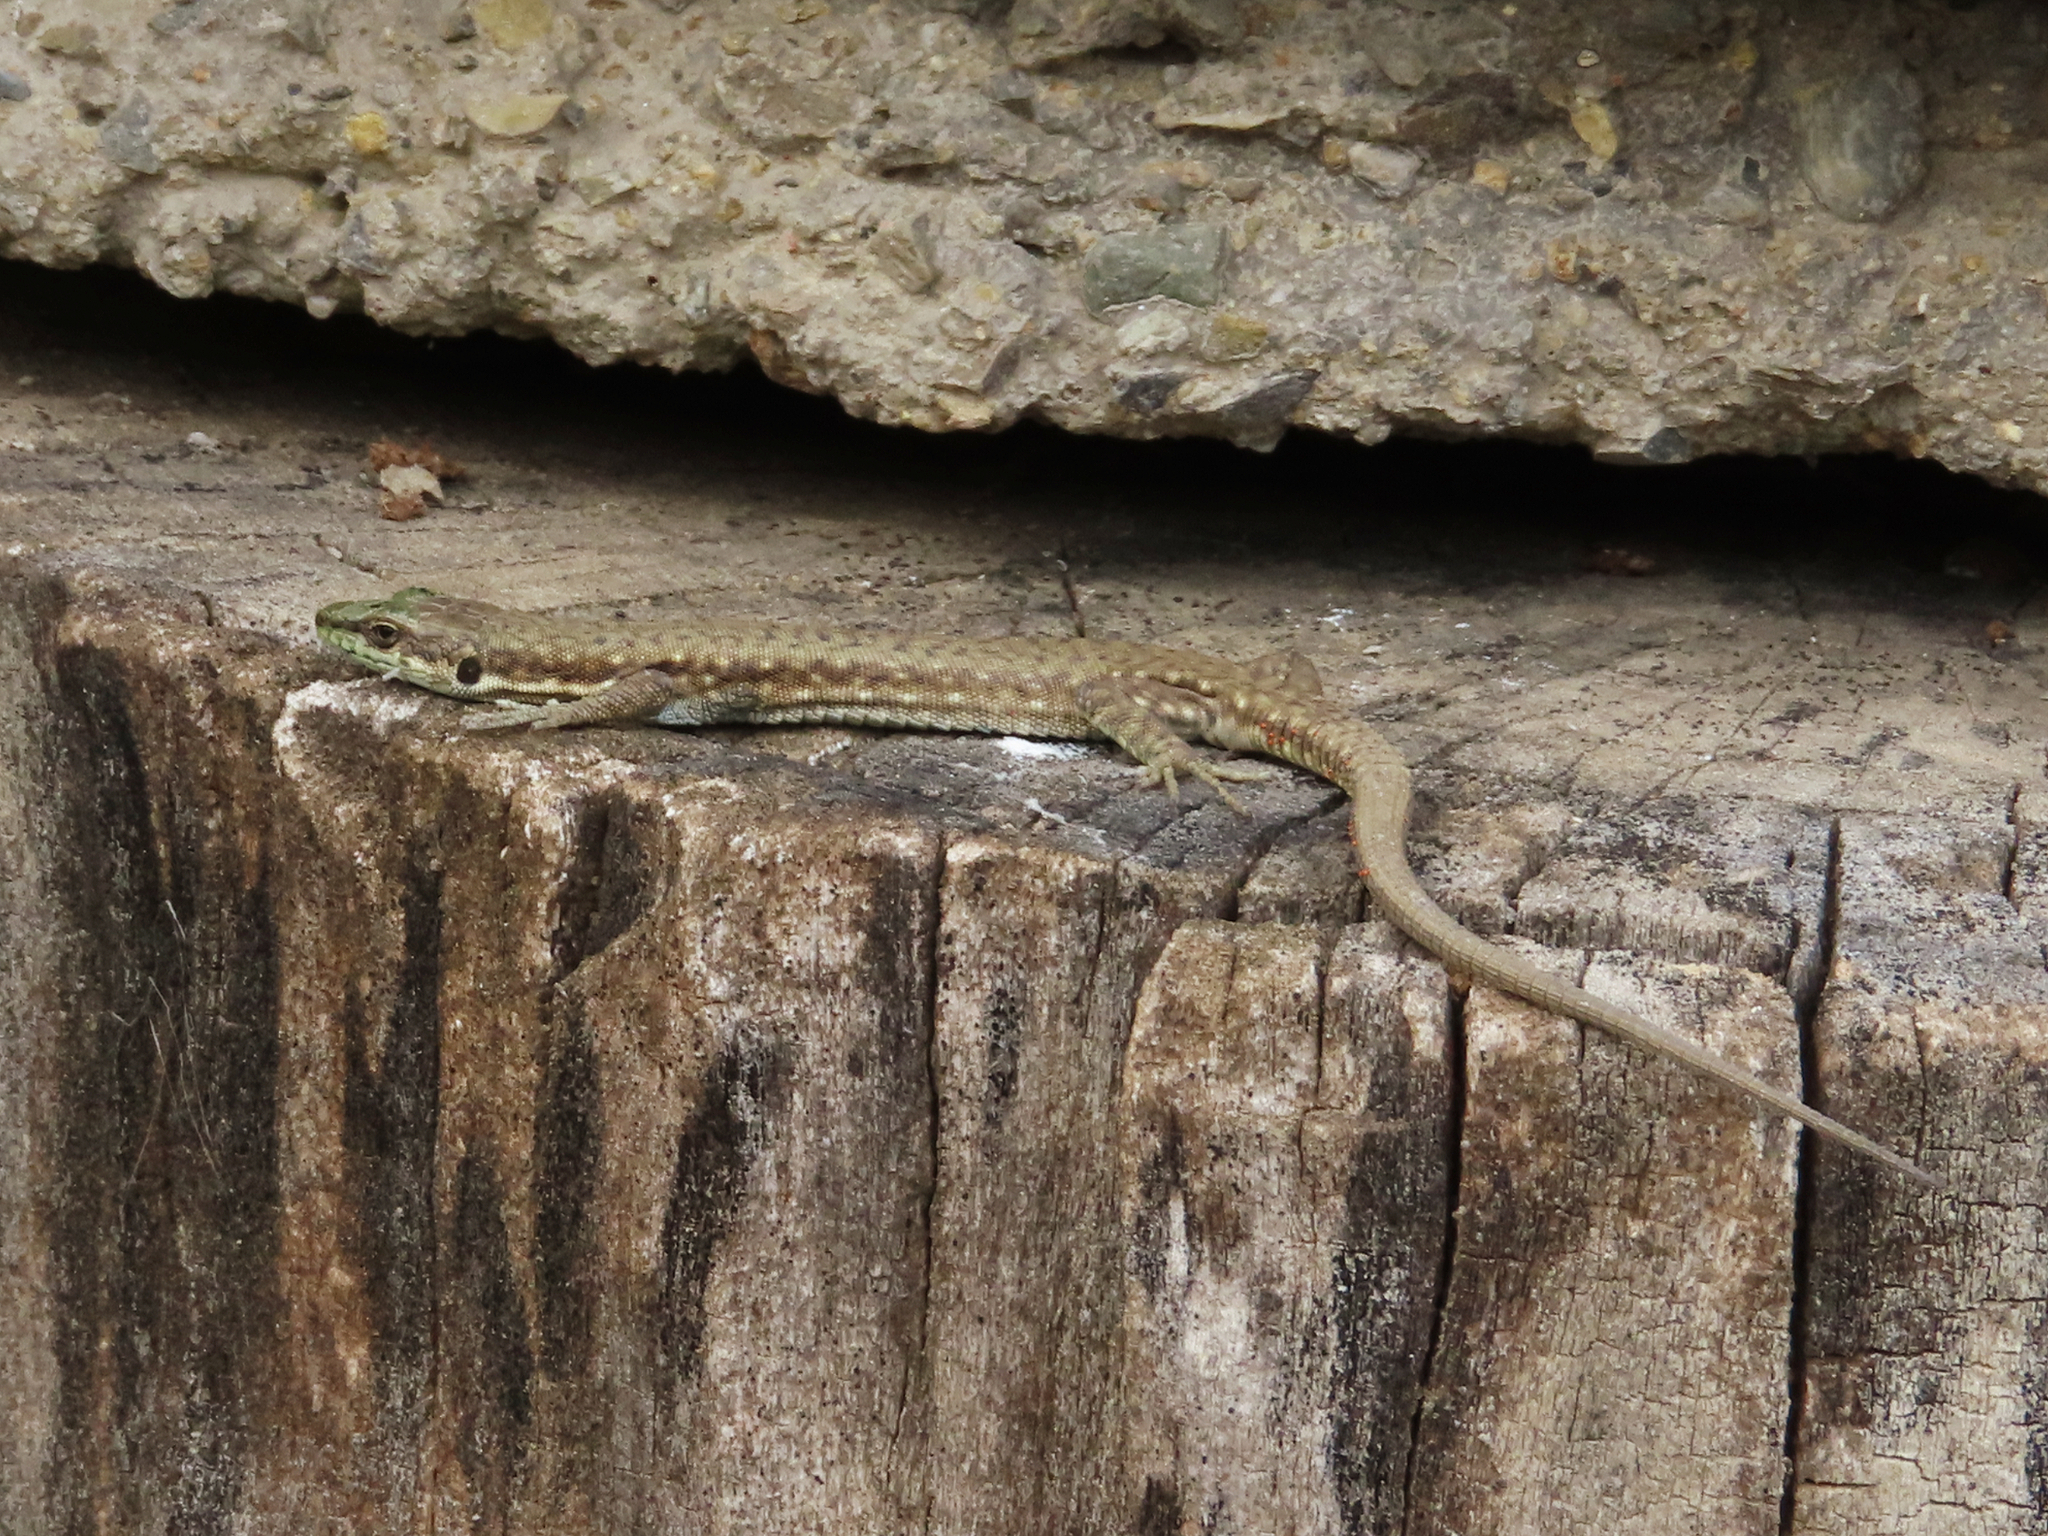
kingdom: Animalia
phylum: Chordata
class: Squamata
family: Lacertidae
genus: Darevskia
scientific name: Darevskia portschinskii
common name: River kura lizard
